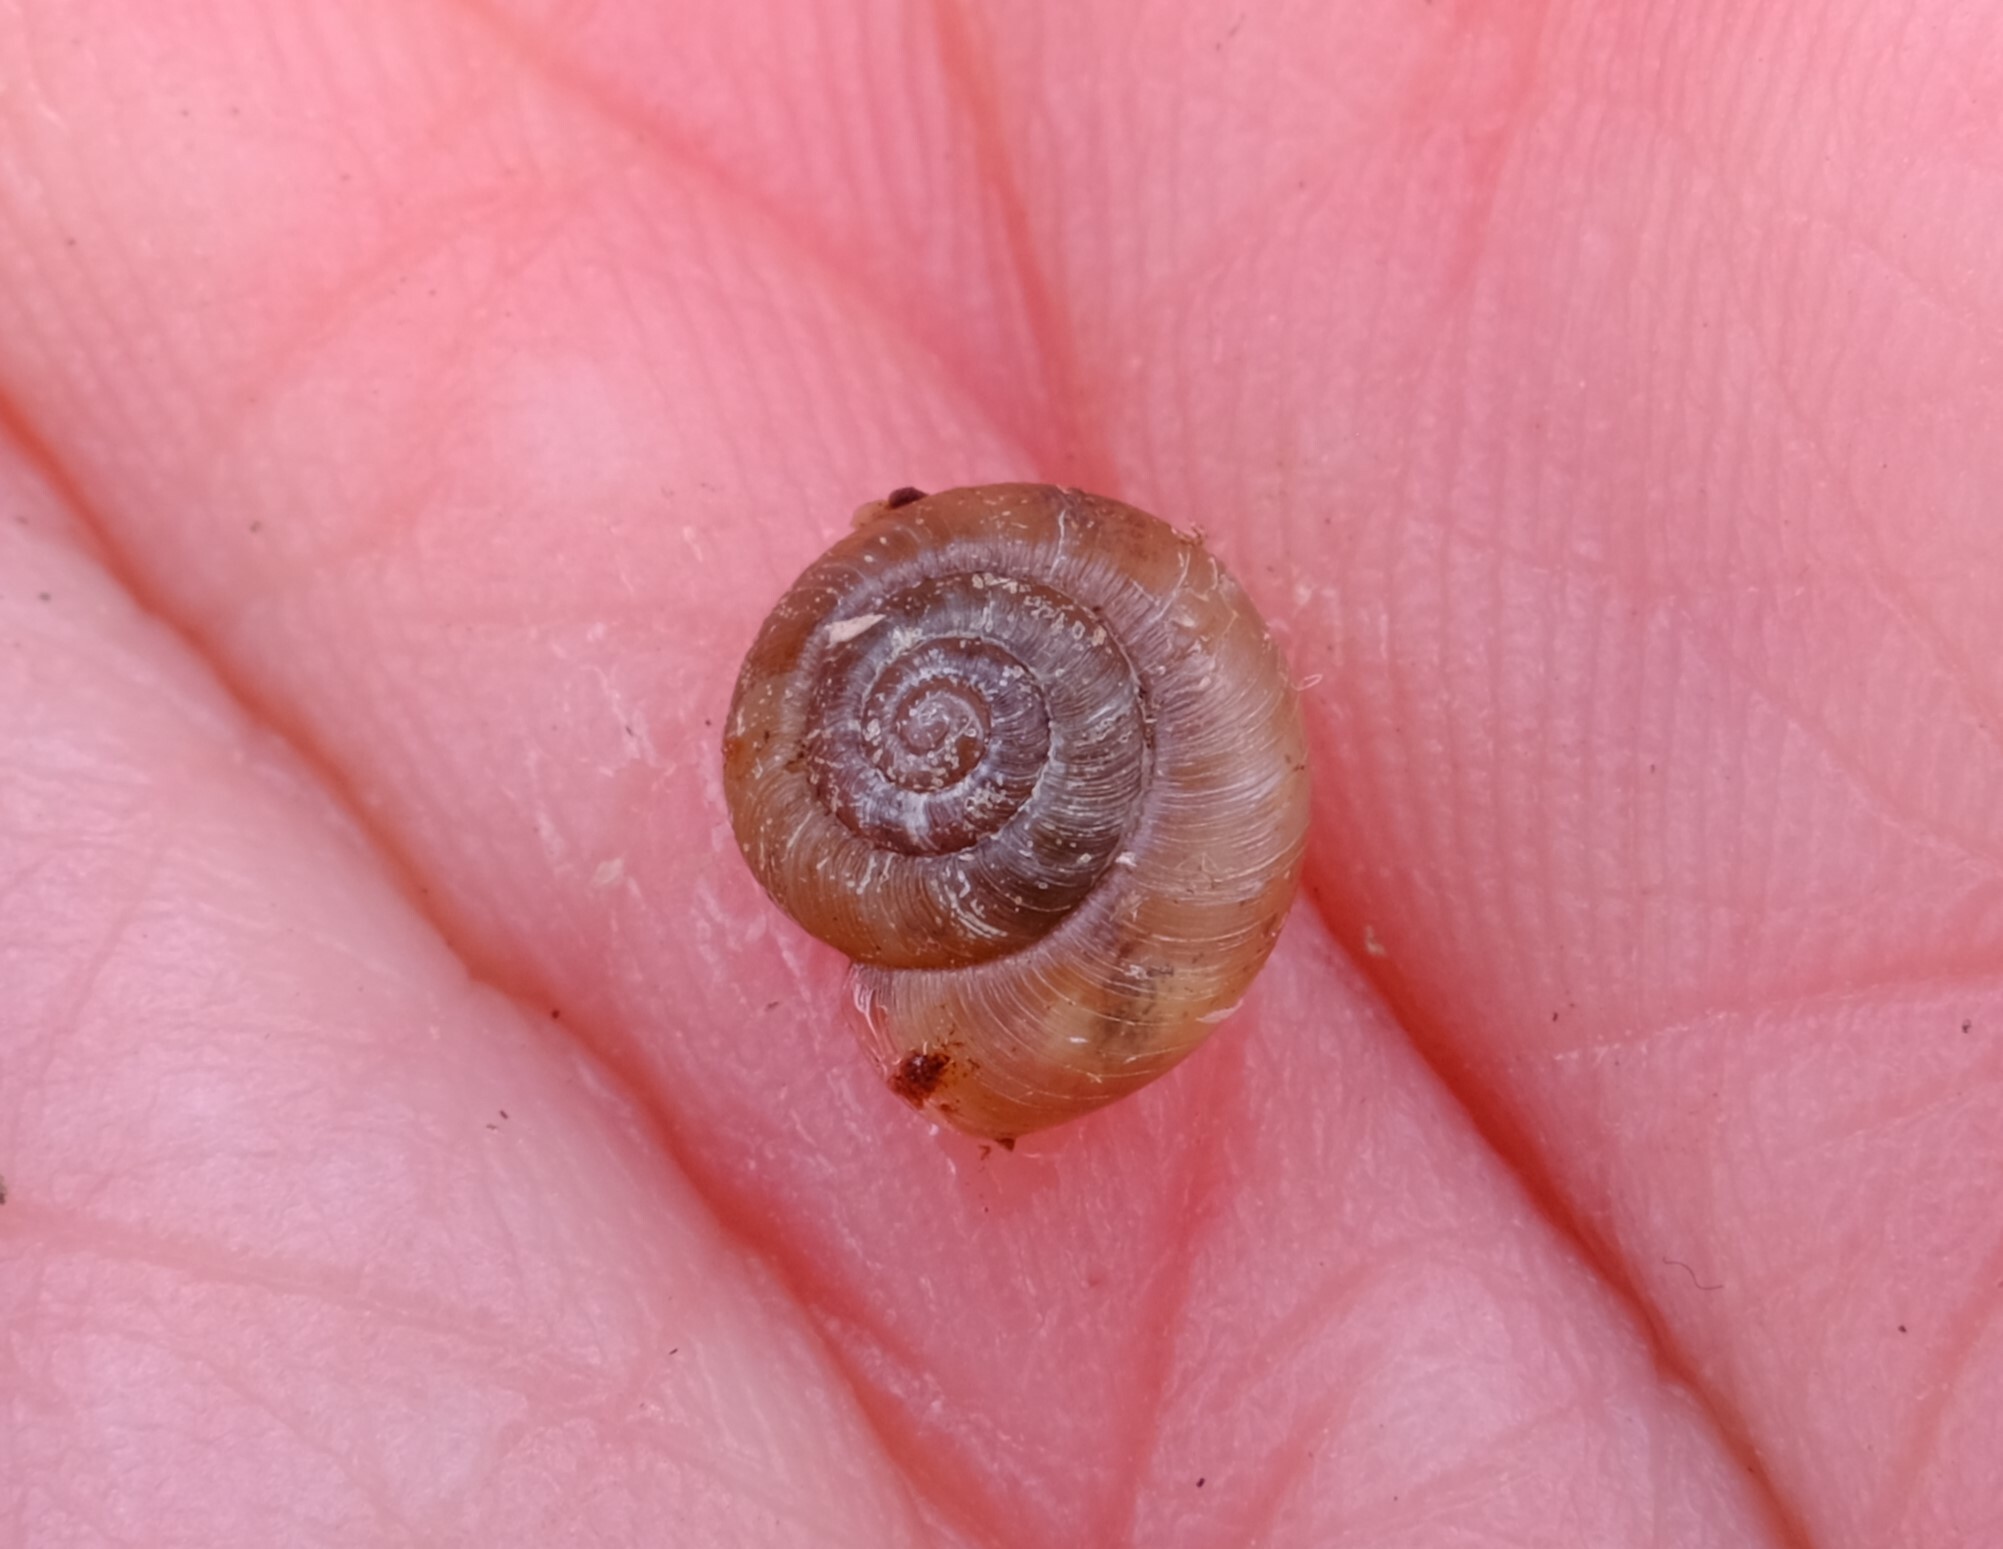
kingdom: Animalia
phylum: Mollusca
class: Gastropoda
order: Stylommatophora
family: Charopidae
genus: Ngairea
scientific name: Ngairea dorrigoensis
